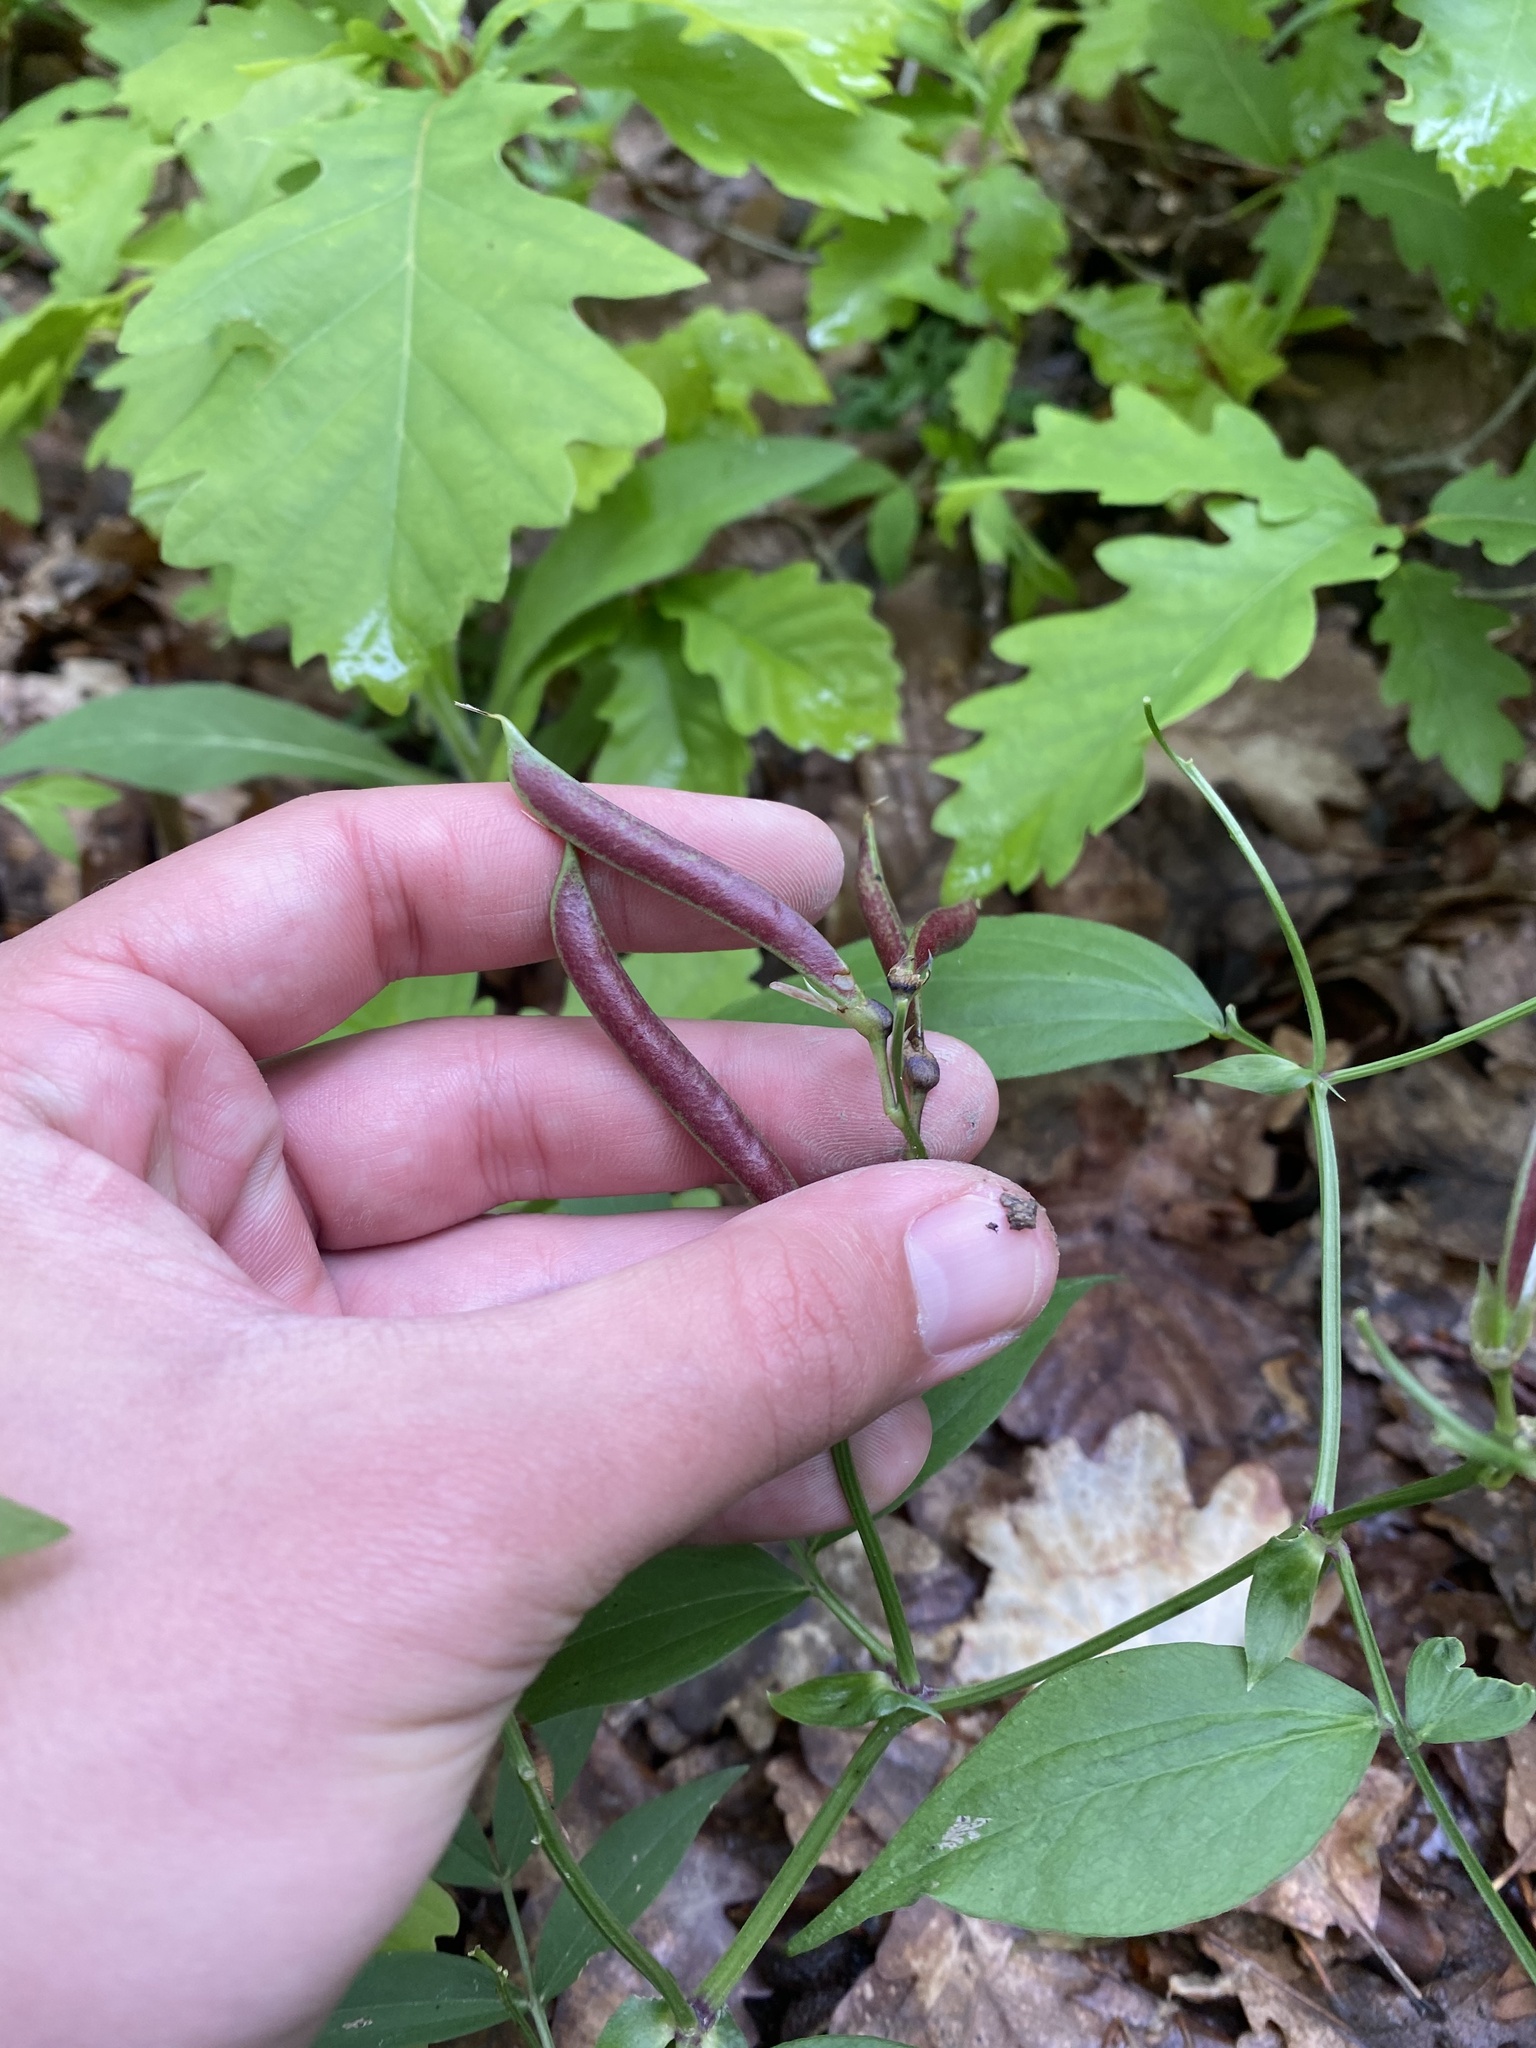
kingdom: Plantae
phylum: Tracheophyta
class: Magnoliopsida
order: Fabales
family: Fabaceae
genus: Lathyrus
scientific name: Lathyrus vernus
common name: Spring pea
